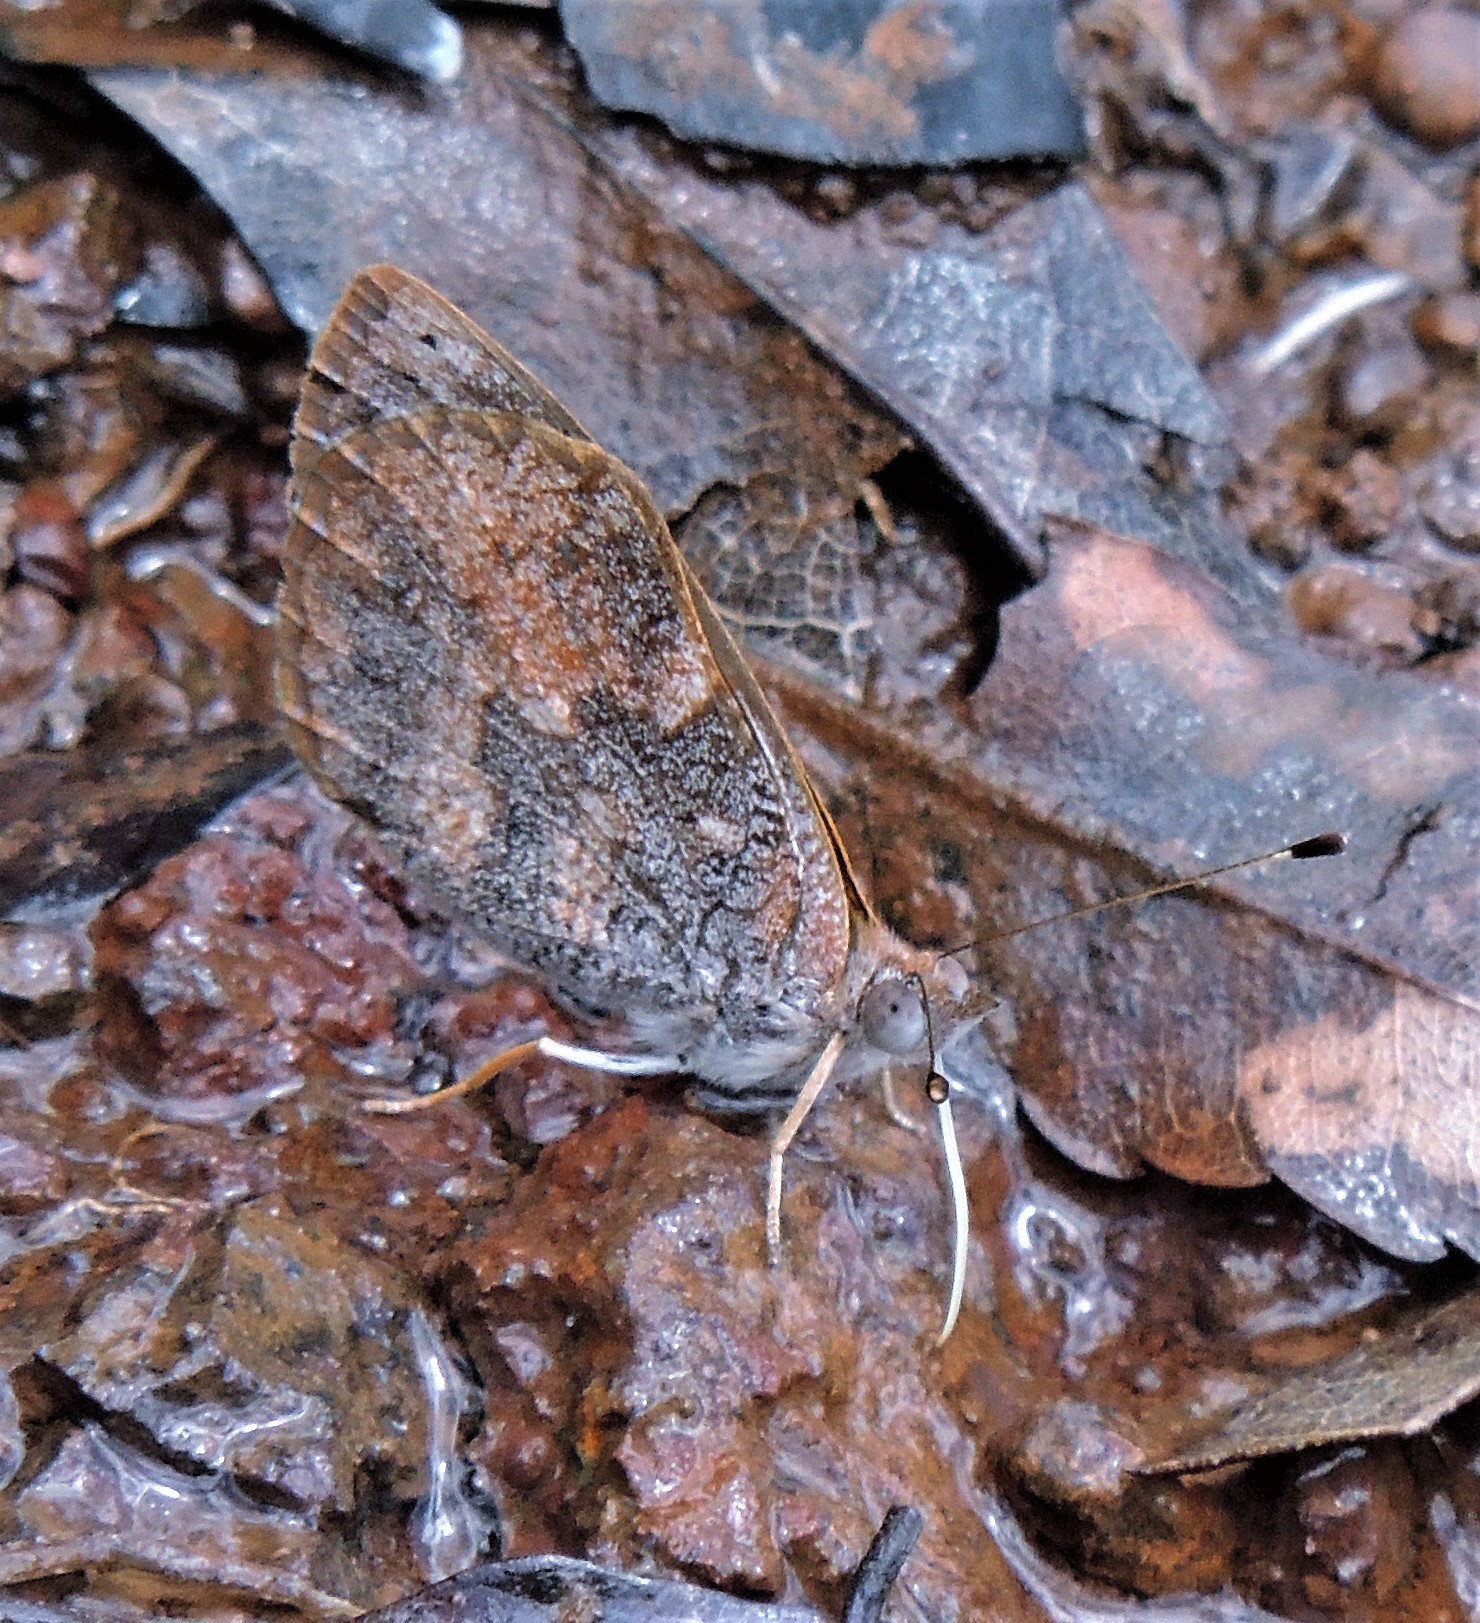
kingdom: Animalia
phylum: Arthropoda
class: Insecta
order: Lepidoptera
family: Nymphalidae
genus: Haematera
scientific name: Haematera pyrame
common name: Blind eighty-eight
